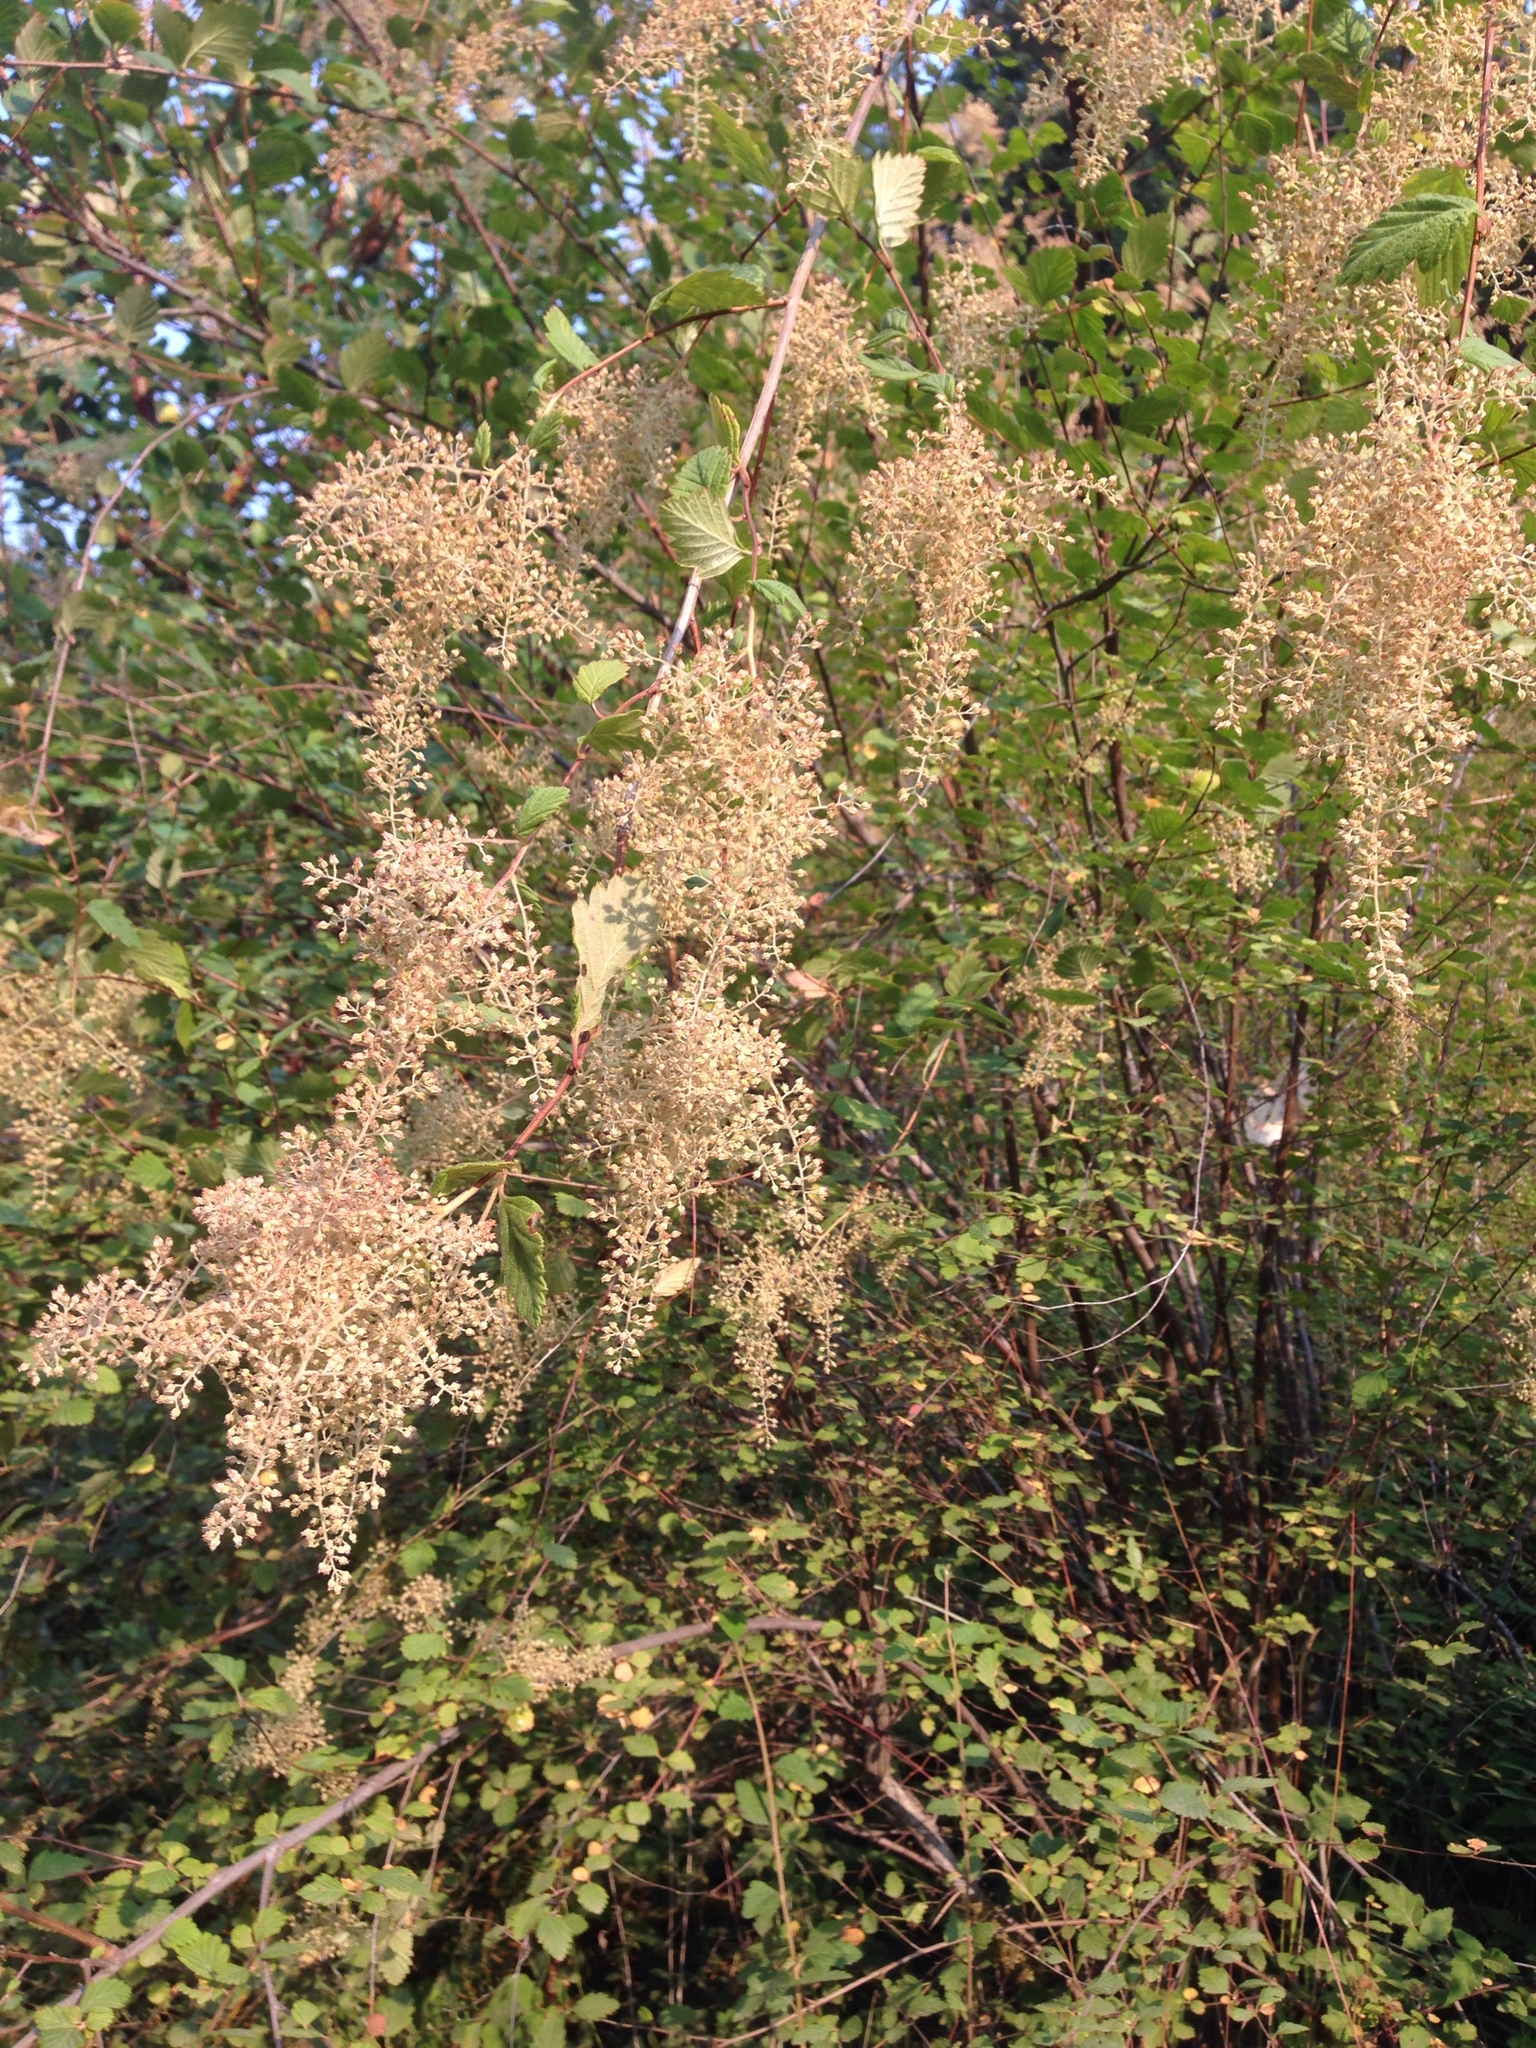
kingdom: Plantae
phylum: Tracheophyta
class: Magnoliopsida
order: Rosales
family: Rosaceae
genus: Holodiscus
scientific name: Holodiscus discolor
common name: Oceanspray
